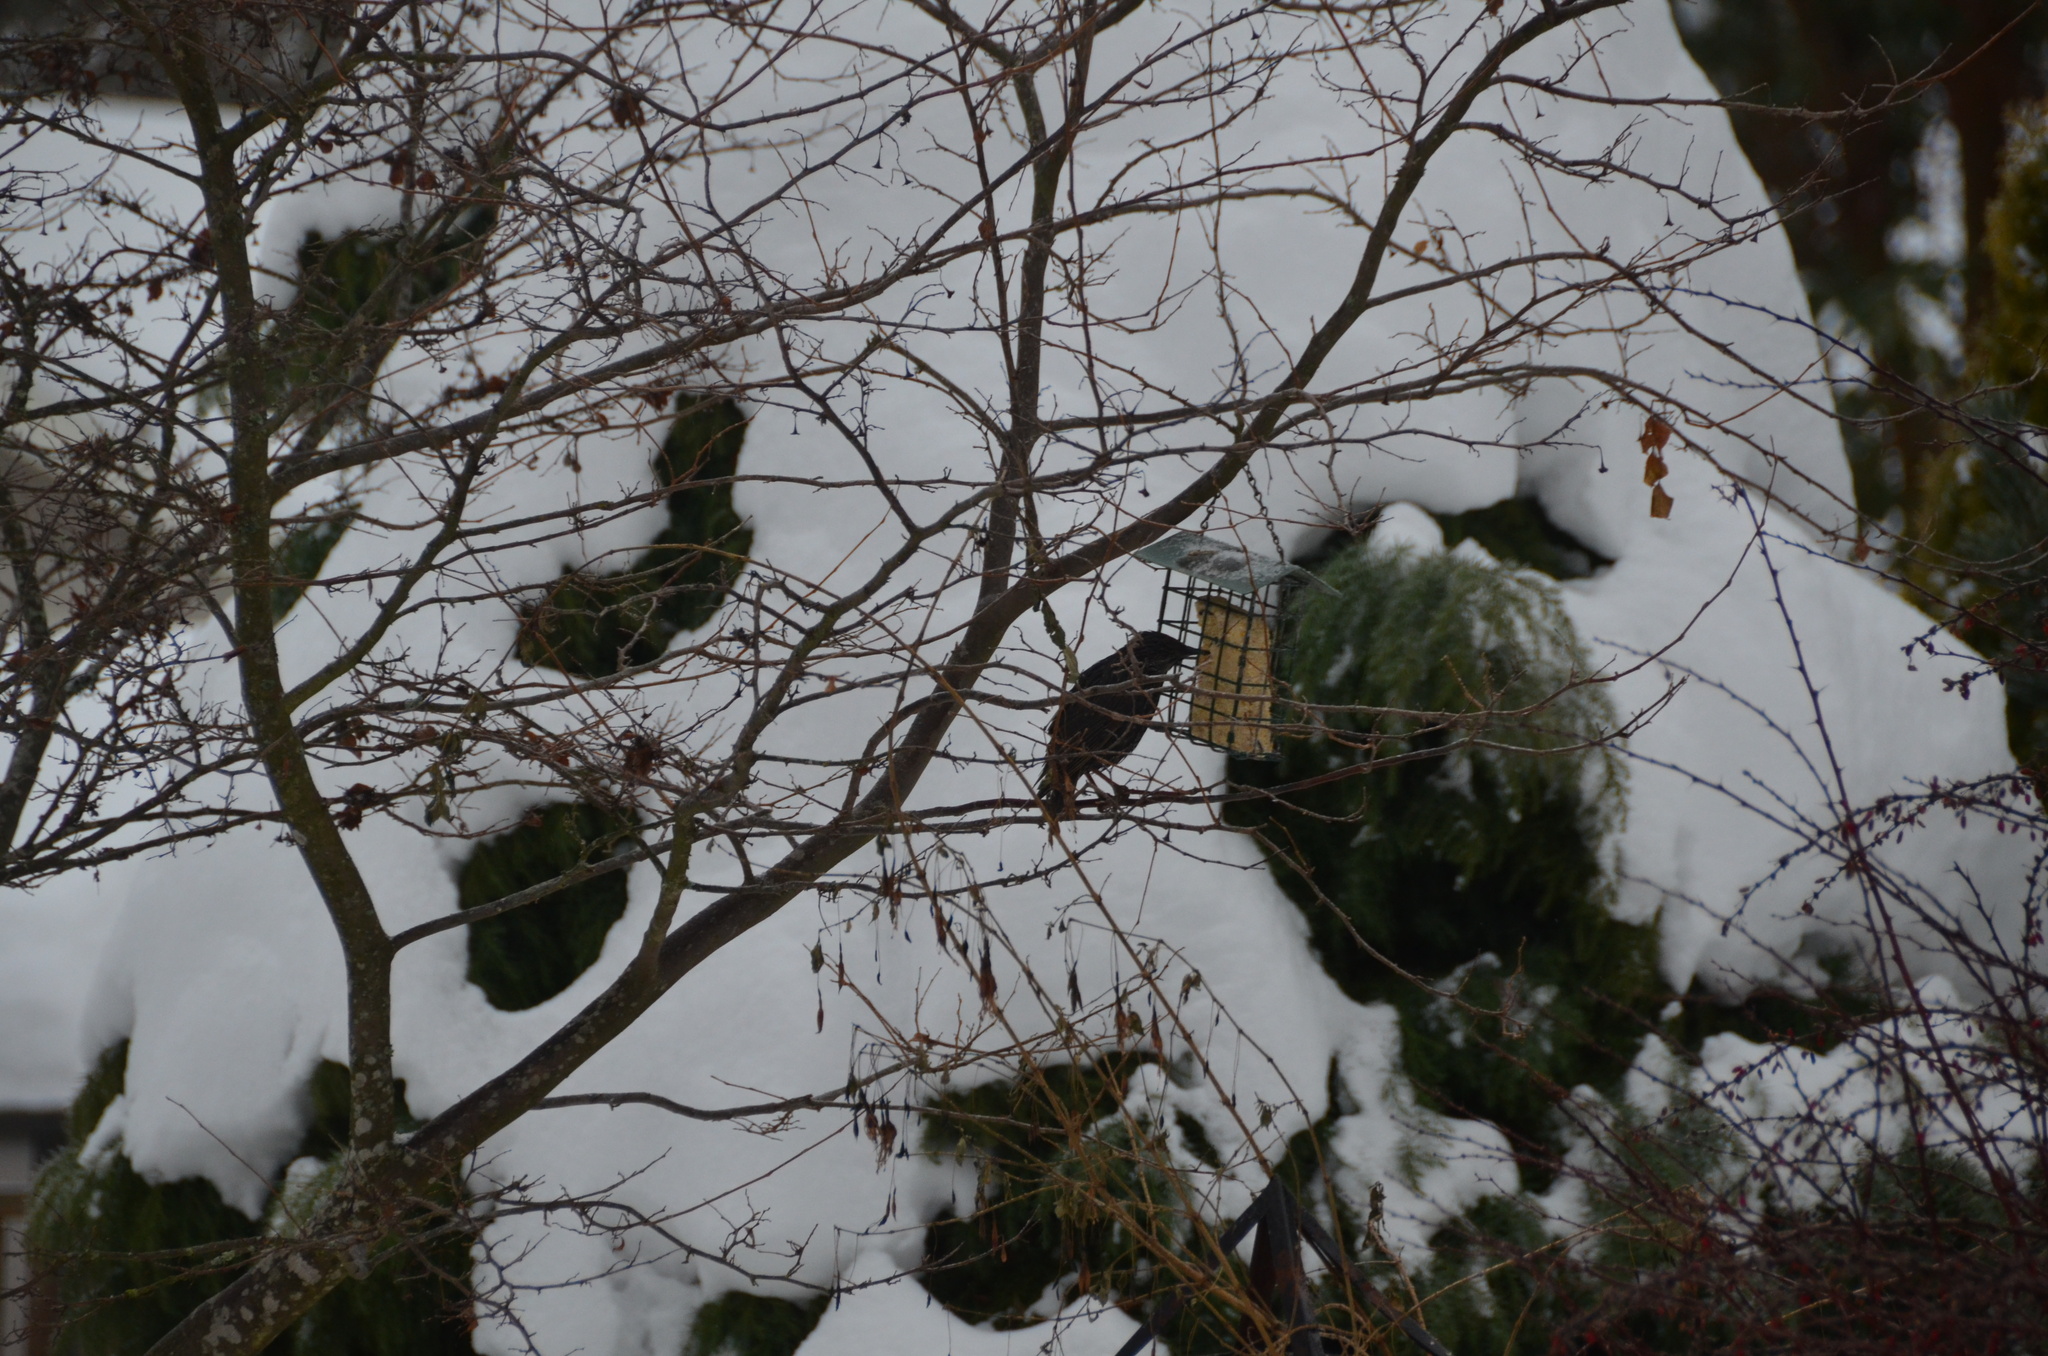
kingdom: Animalia
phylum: Chordata
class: Aves
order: Passeriformes
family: Sturnidae
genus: Sturnus
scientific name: Sturnus vulgaris
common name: Common starling
